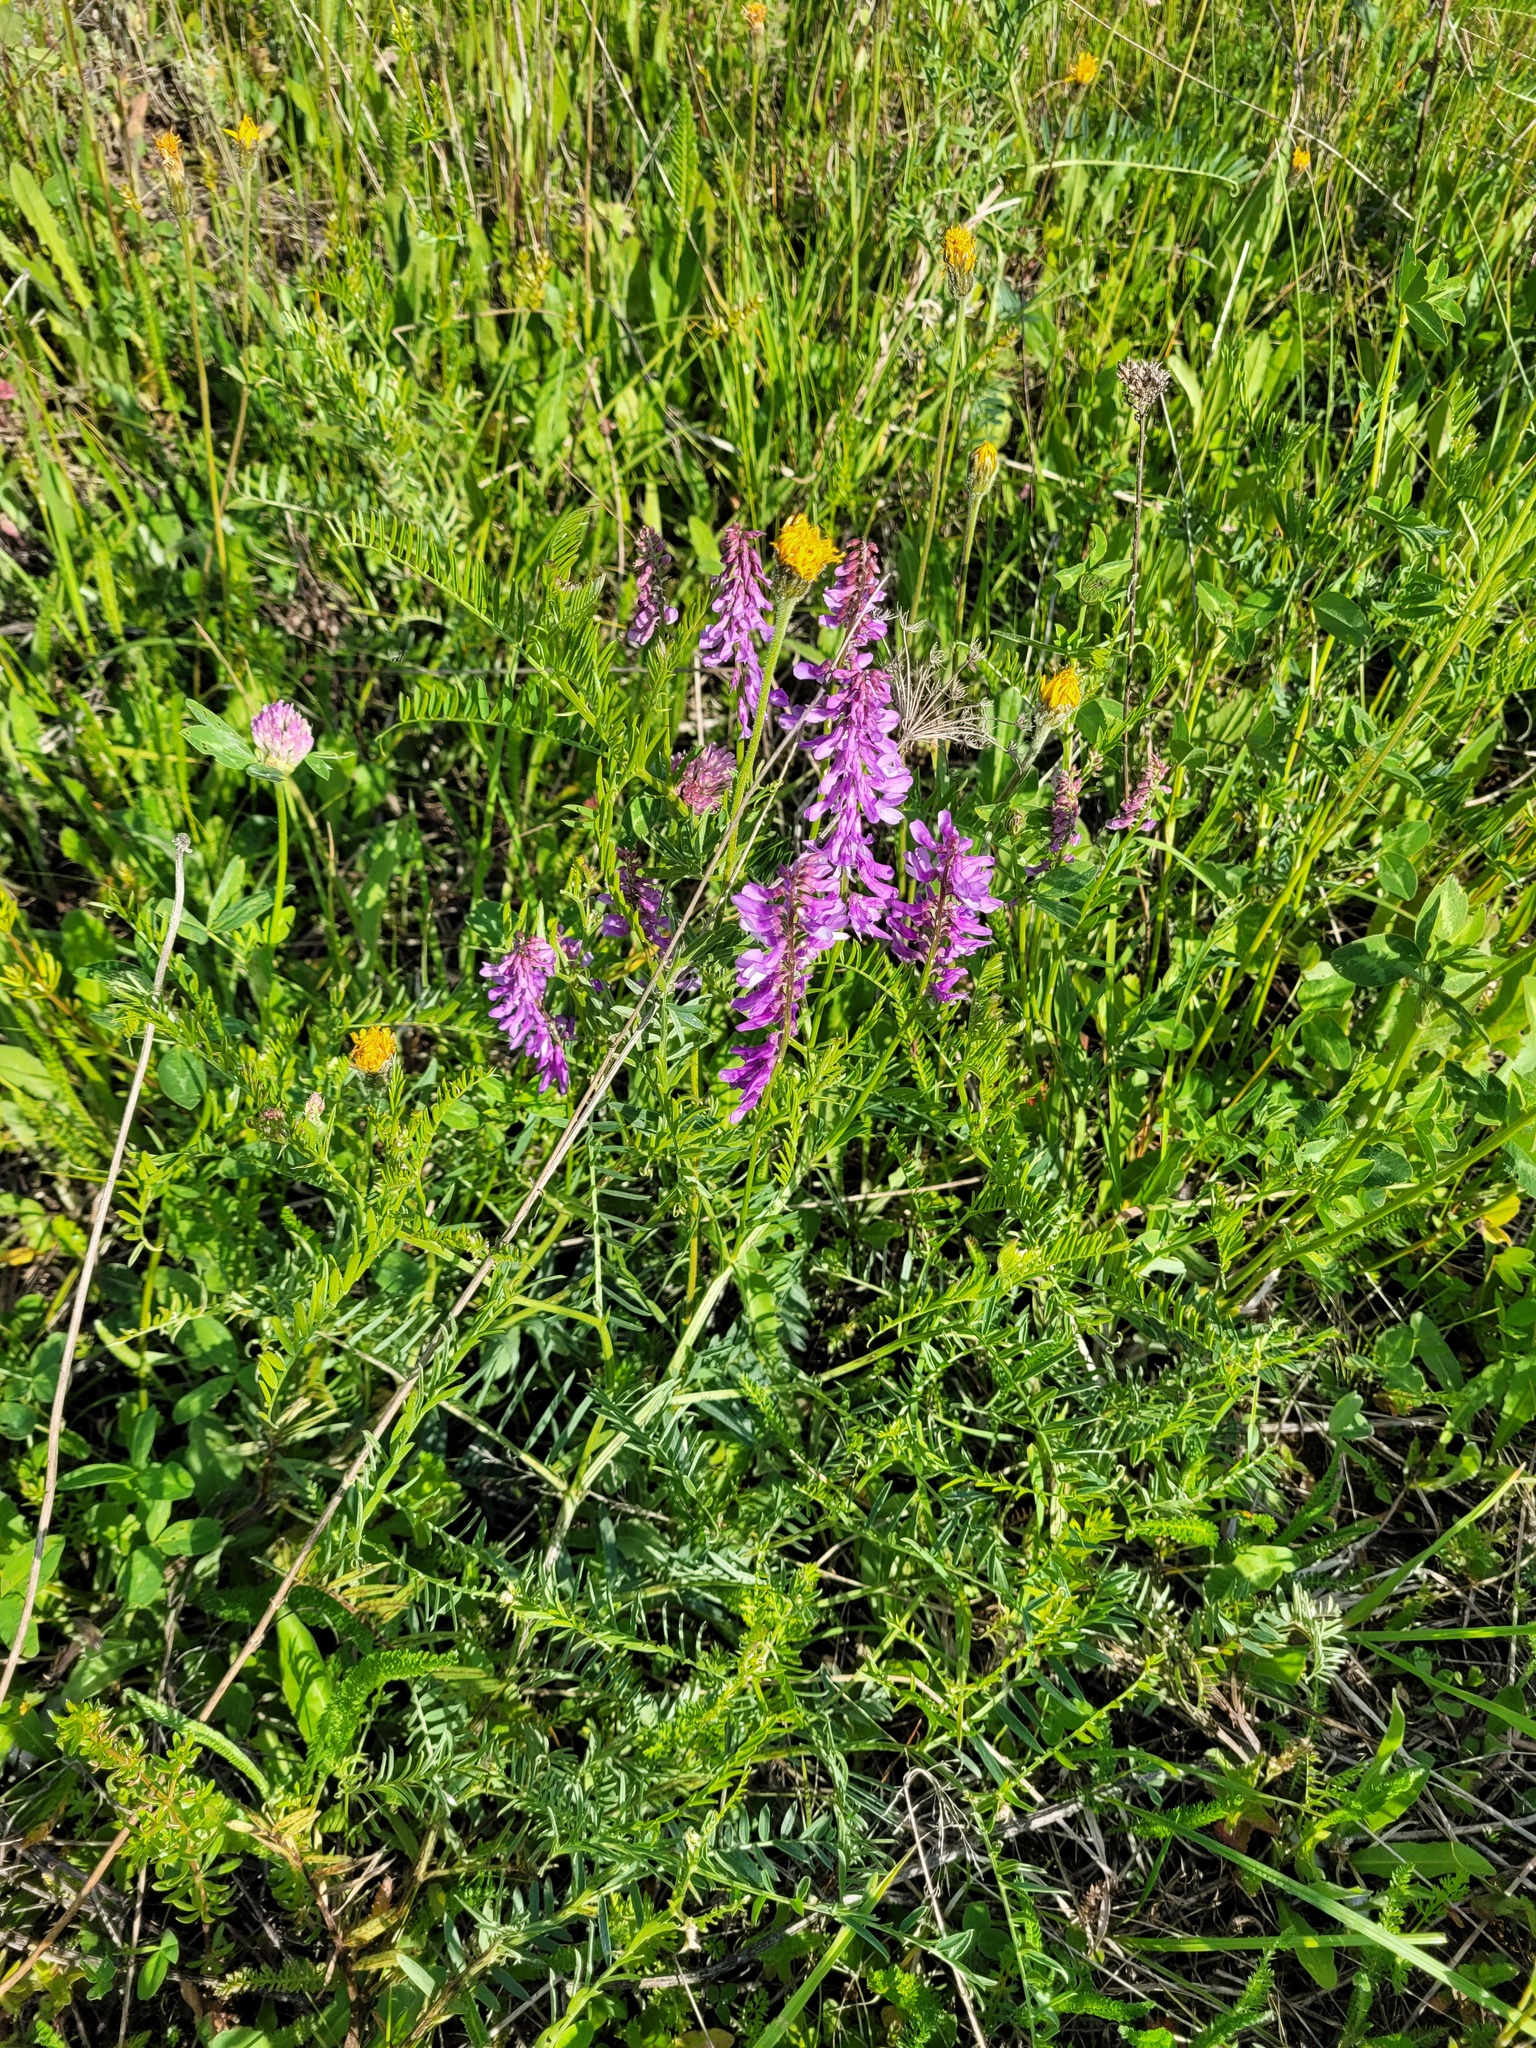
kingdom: Plantae
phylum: Tracheophyta
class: Magnoliopsida
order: Fabales
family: Fabaceae
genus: Vicia
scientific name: Vicia tenuifolia
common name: Fine-leaved vetch
